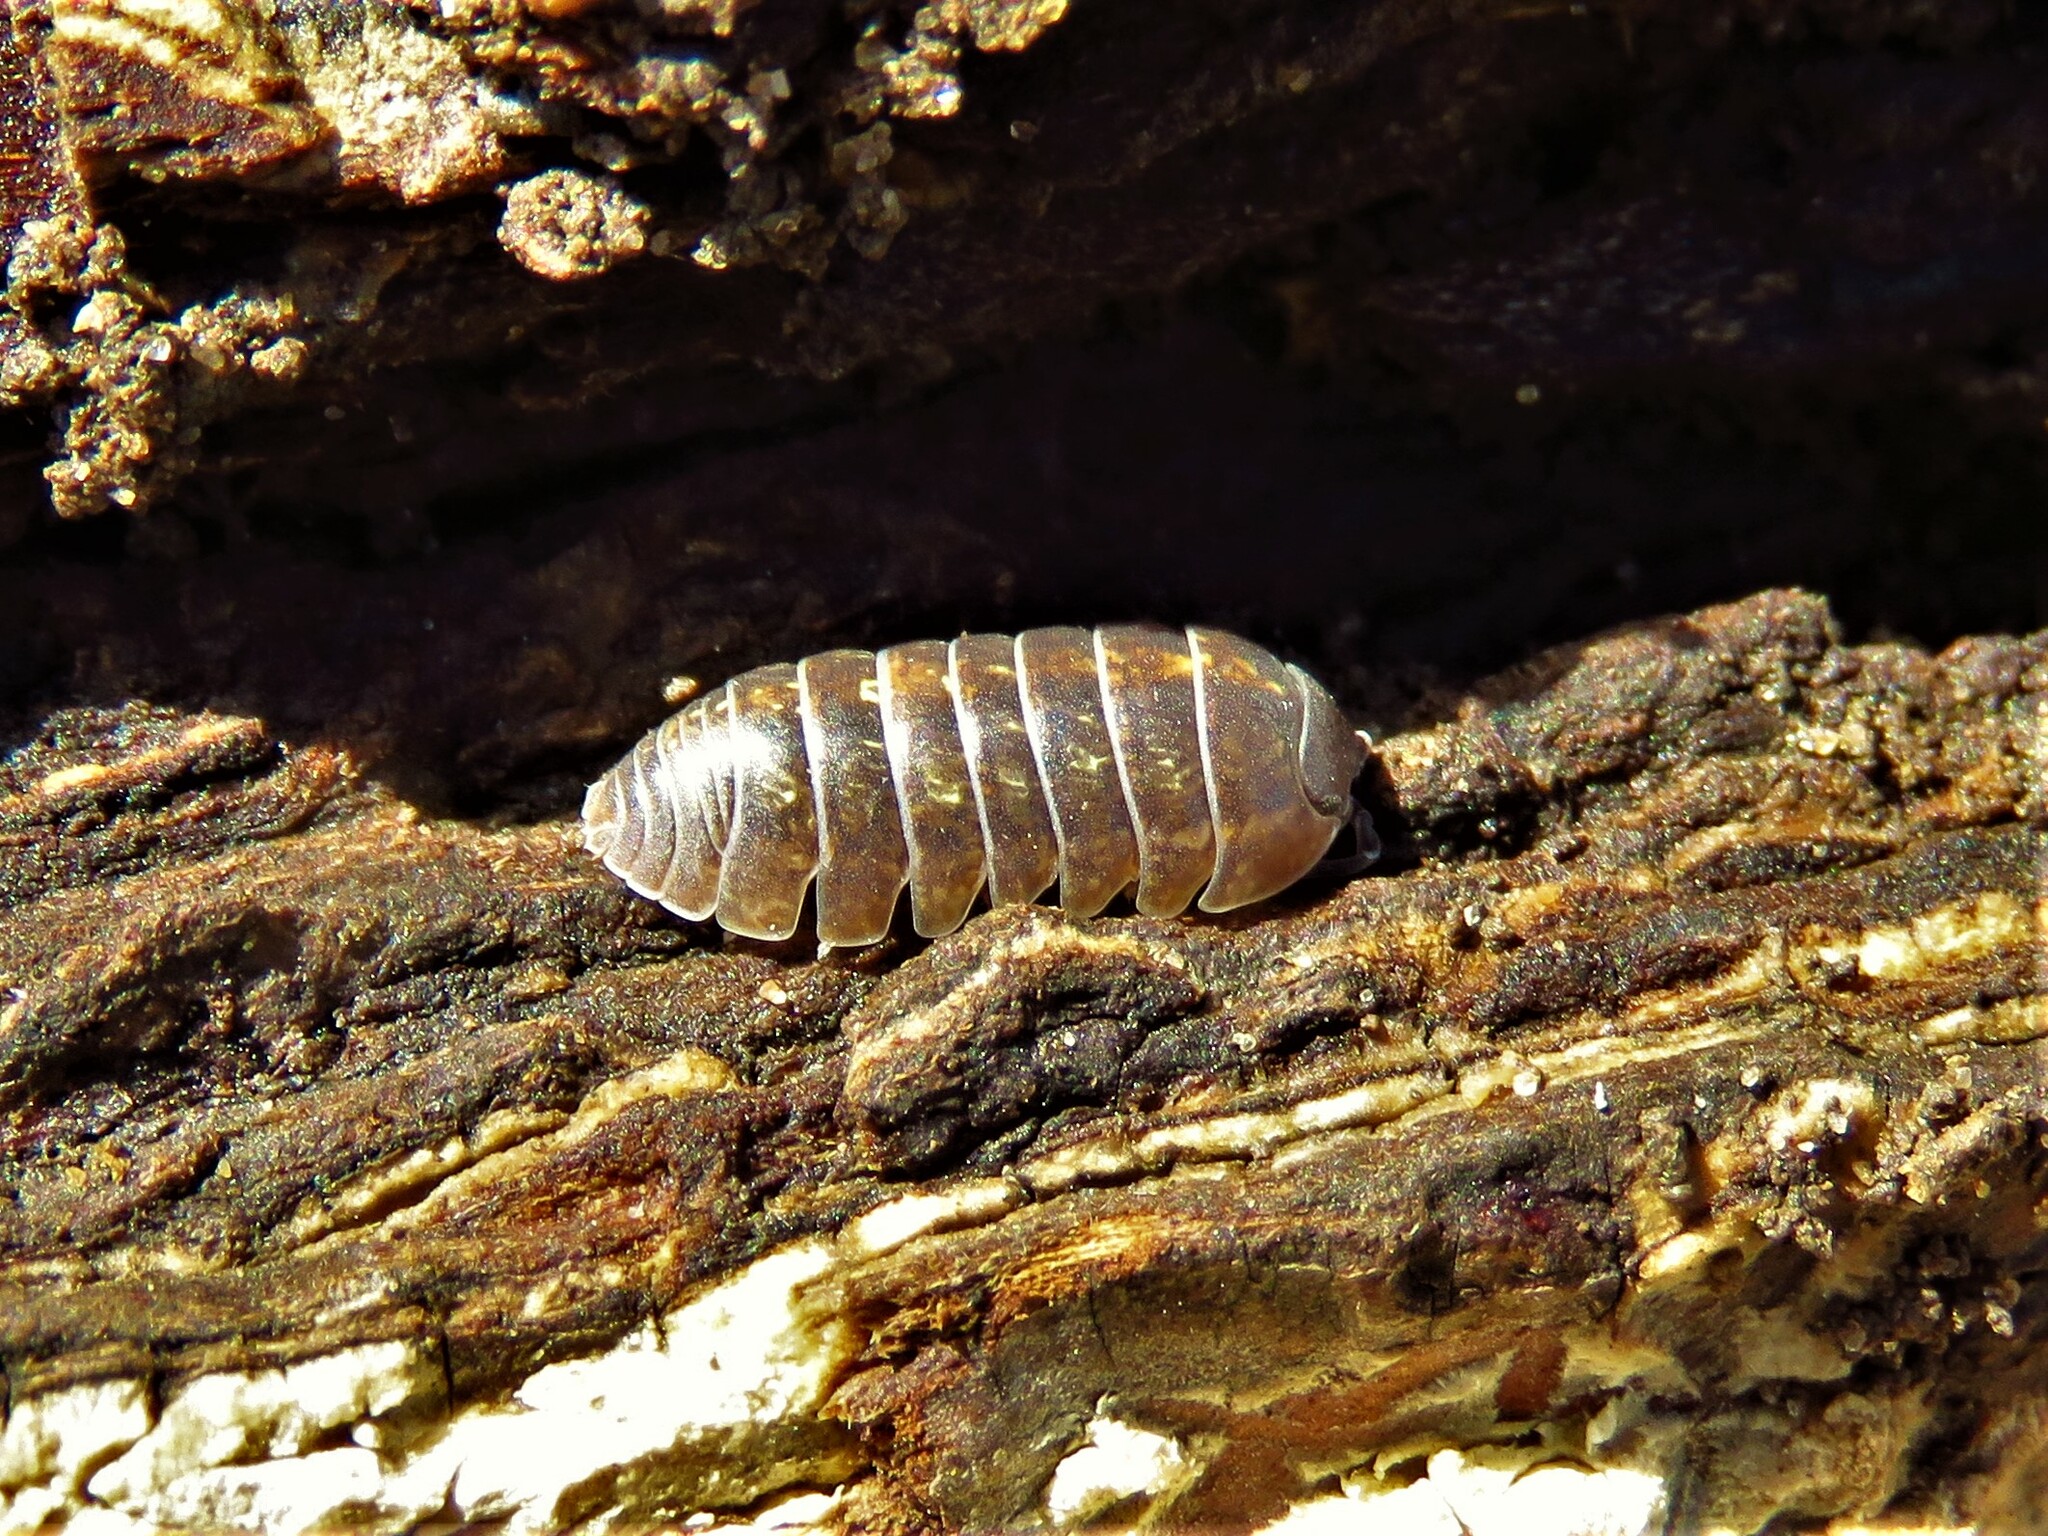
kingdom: Animalia
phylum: Arthropoda
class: Malacostraca
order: Isopoda
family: Armadillidiidae
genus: Armadillidium
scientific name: Armadillidium vulgare
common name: Common pill woodlouse
